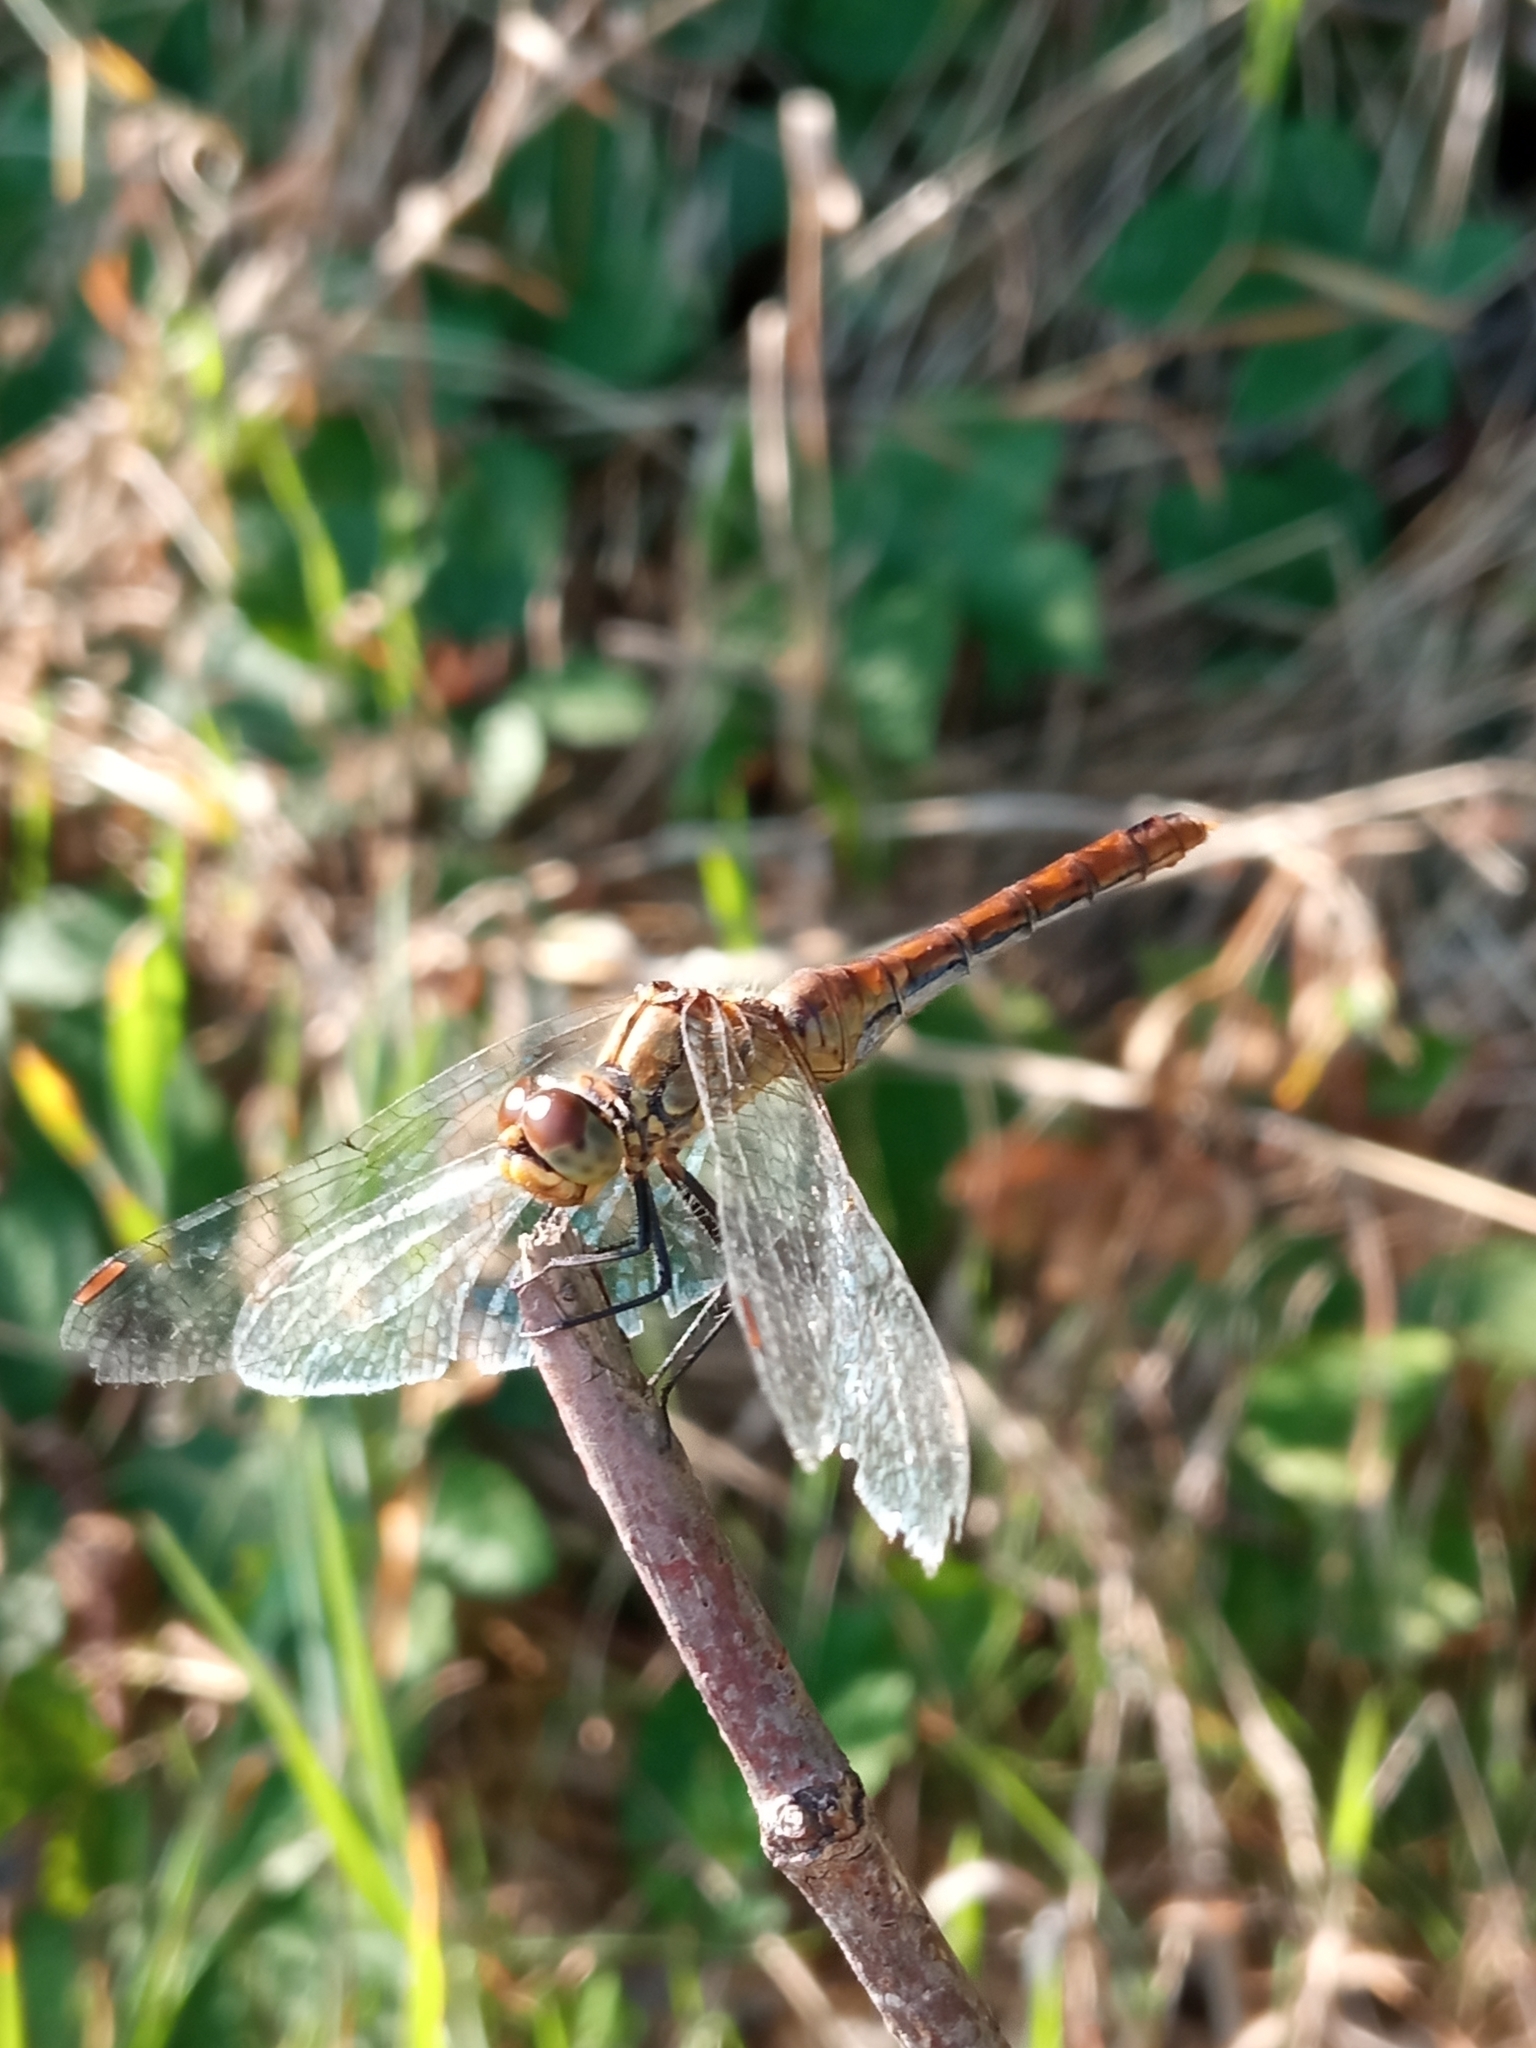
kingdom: Animalia
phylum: Arthropoda
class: Insecta
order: Odonata
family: Libellulidae
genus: Sympetrum
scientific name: Sympetrum sanguineum
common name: Ruddy darter
